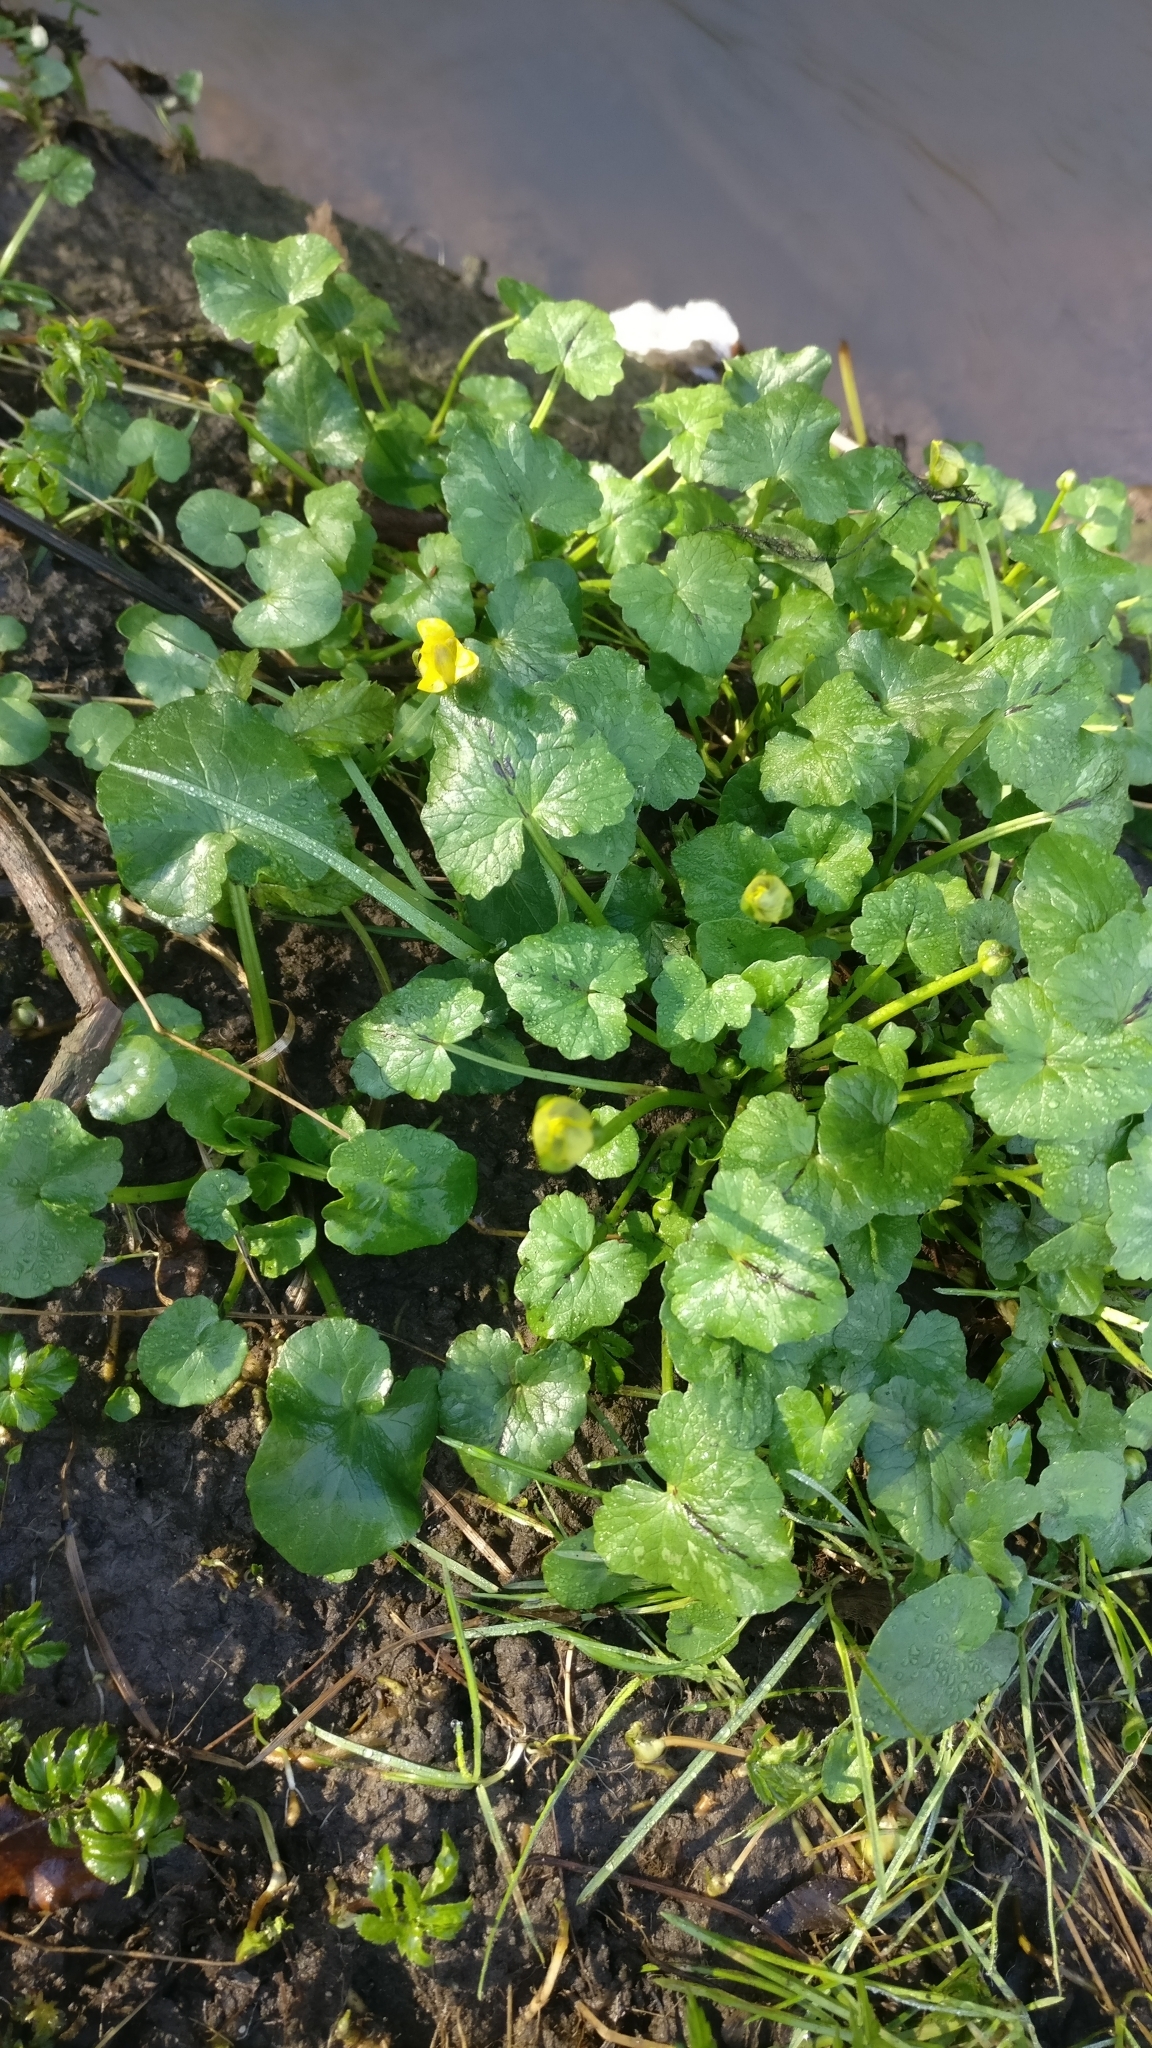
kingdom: Plantae
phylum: Tracheophyta
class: Magnoliopsida
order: Ranunculales
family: Ranunculaceae
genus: Ficaria
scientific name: Ficaria verna
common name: Lesser celandine
